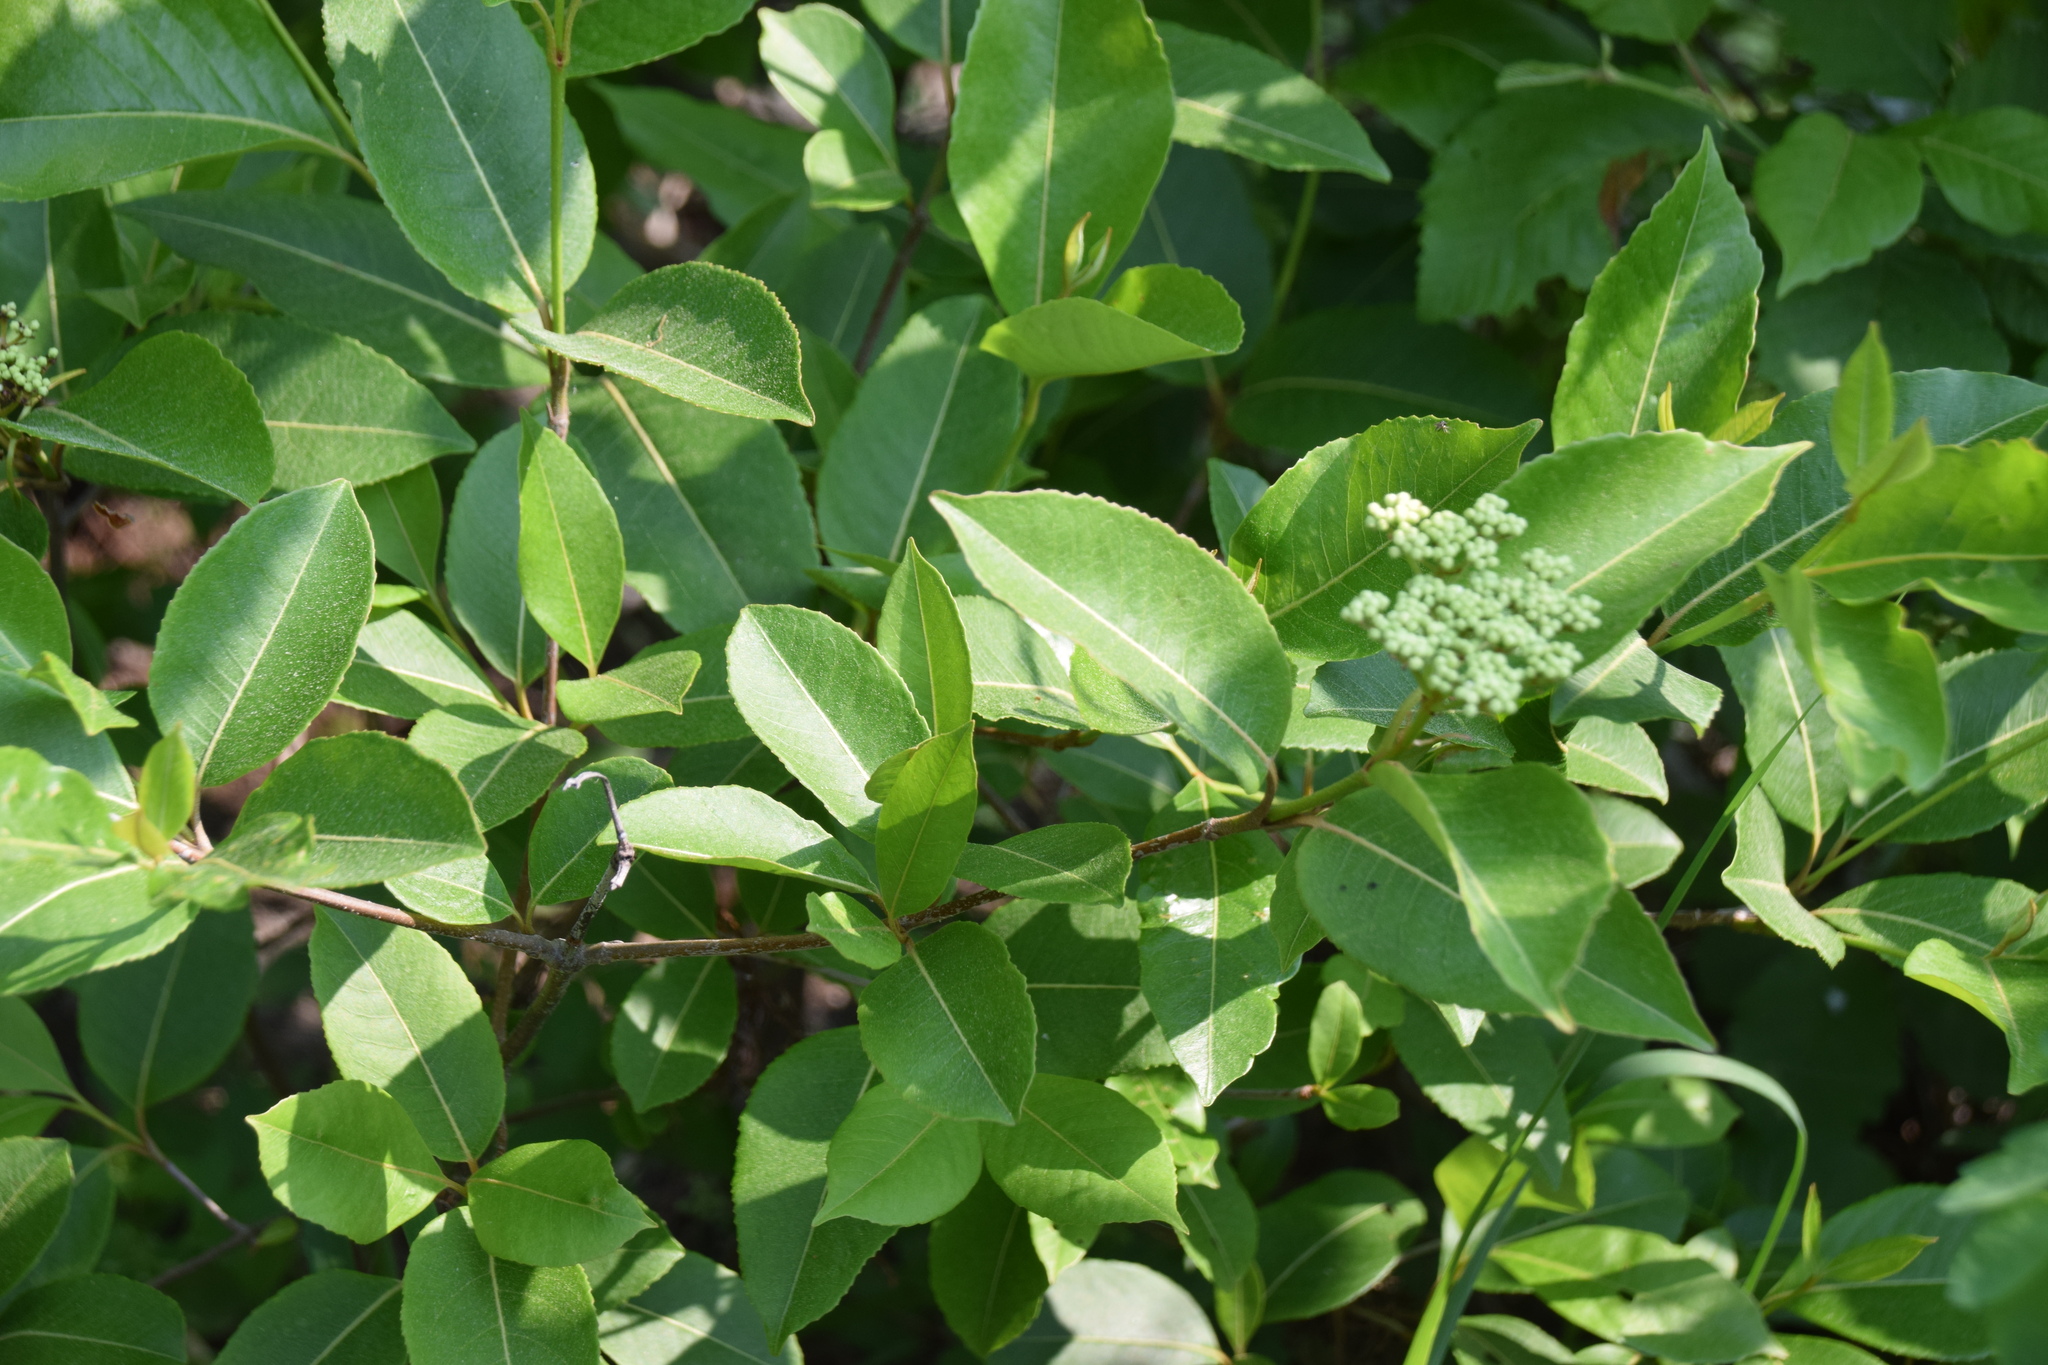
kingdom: Plantae
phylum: Tracheophyta
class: Magnoliopsida
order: Dipsacales
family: Viburnaceae
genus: Viburnum
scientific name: Viburnum cassinoides
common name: Swamp haw
